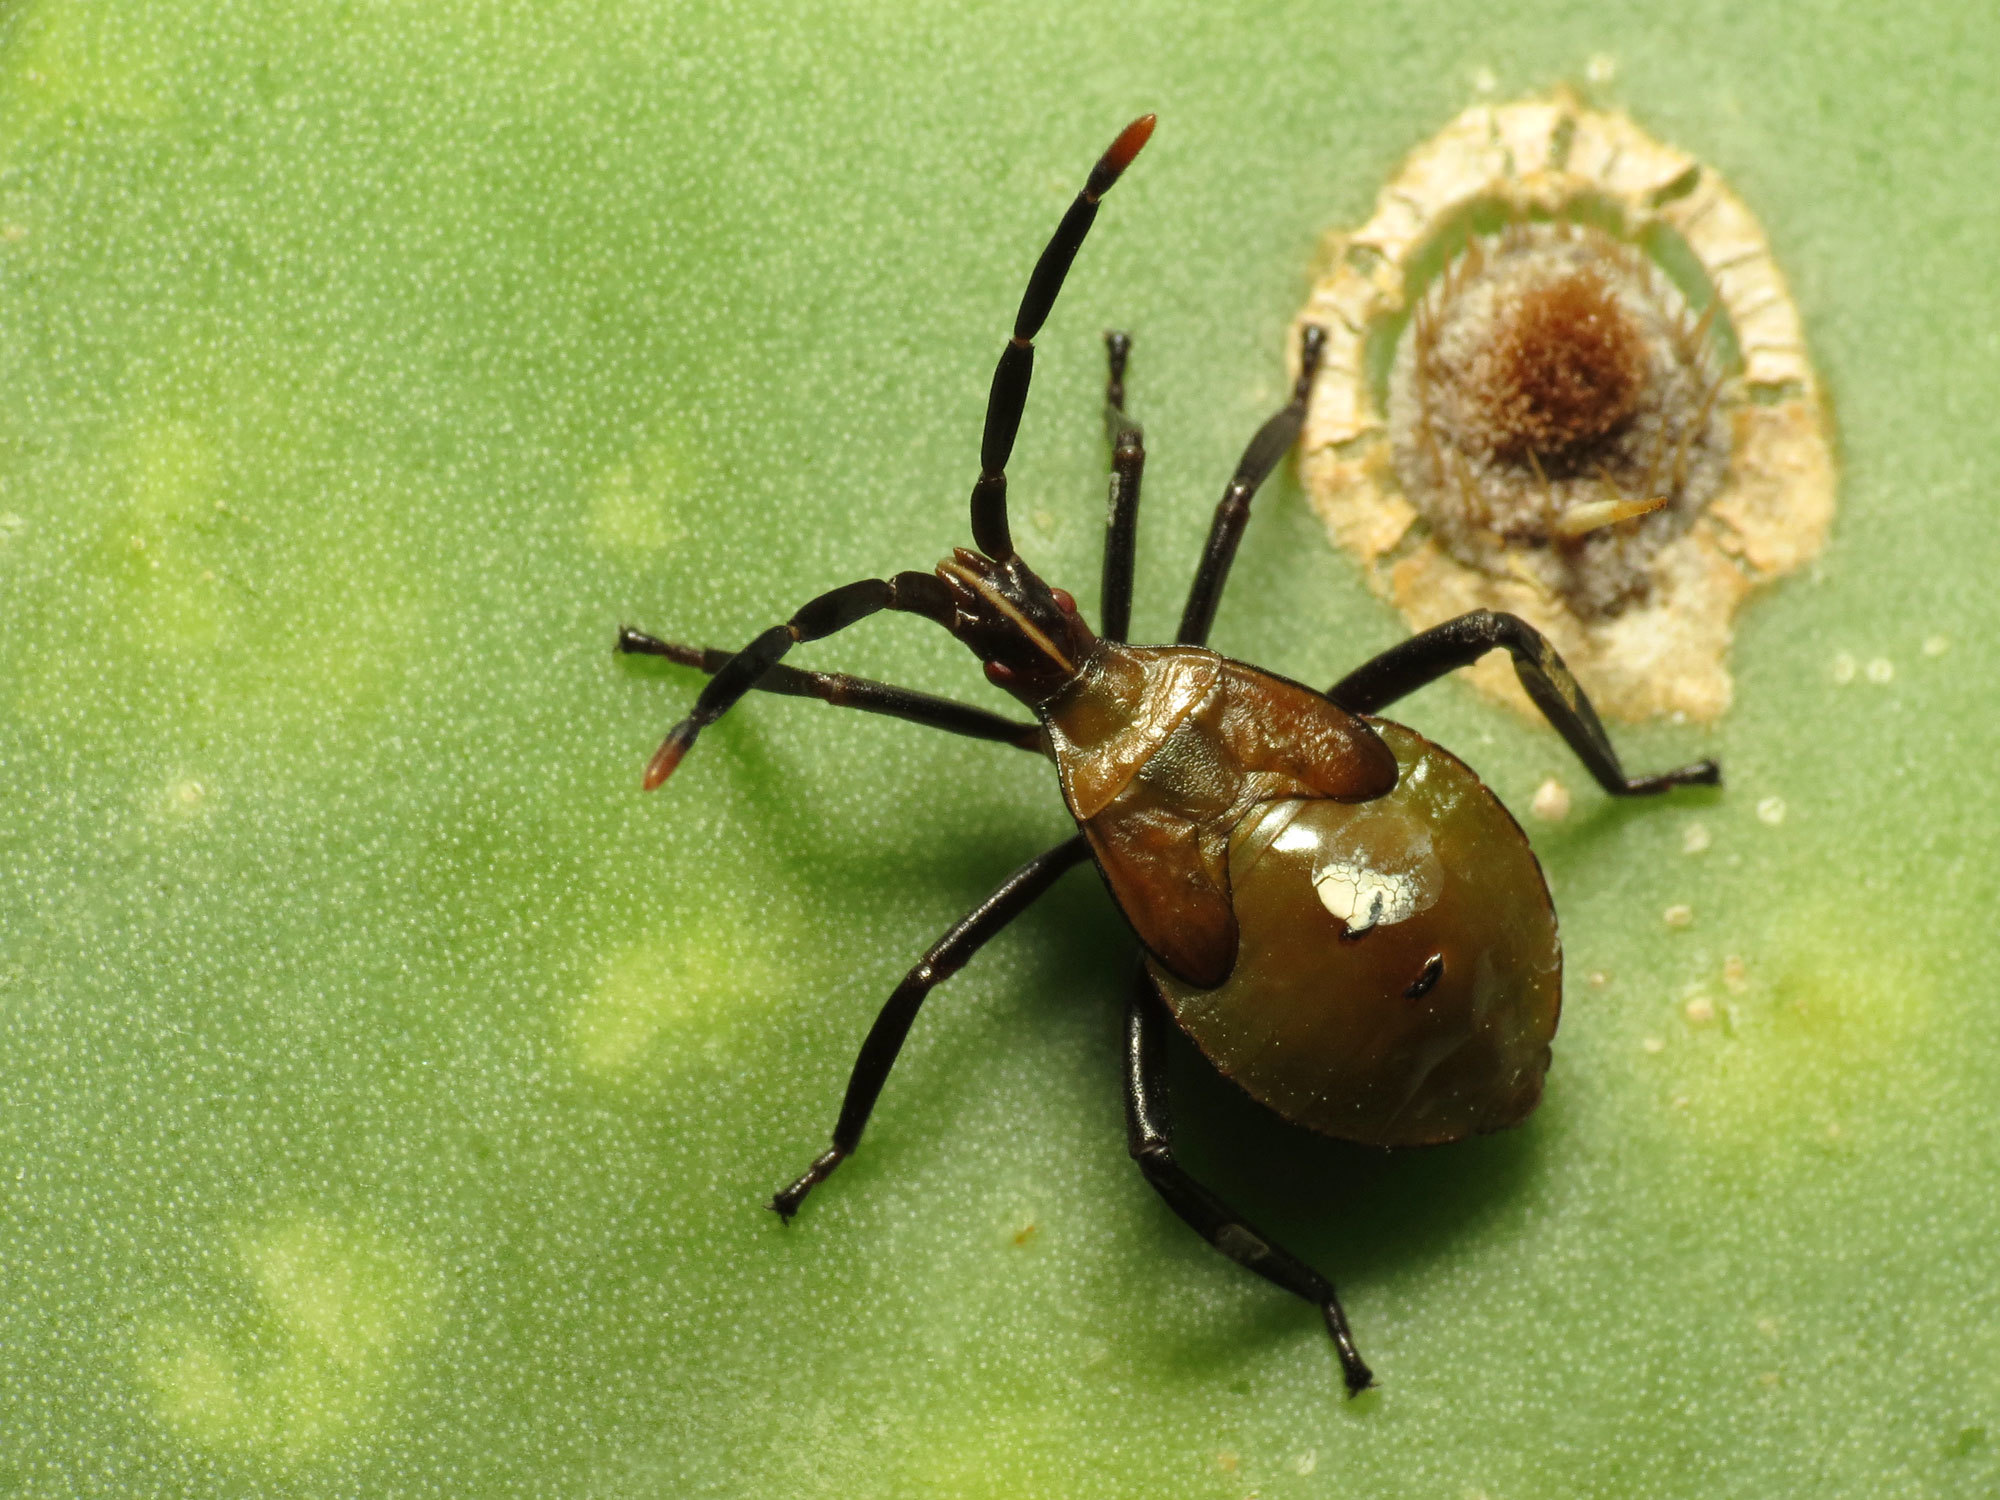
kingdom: Animalia
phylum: Arthropoda
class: Insecta
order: Hemiptera
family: Coreidae
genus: Chelinidea
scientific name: Chelinidea vittiger
